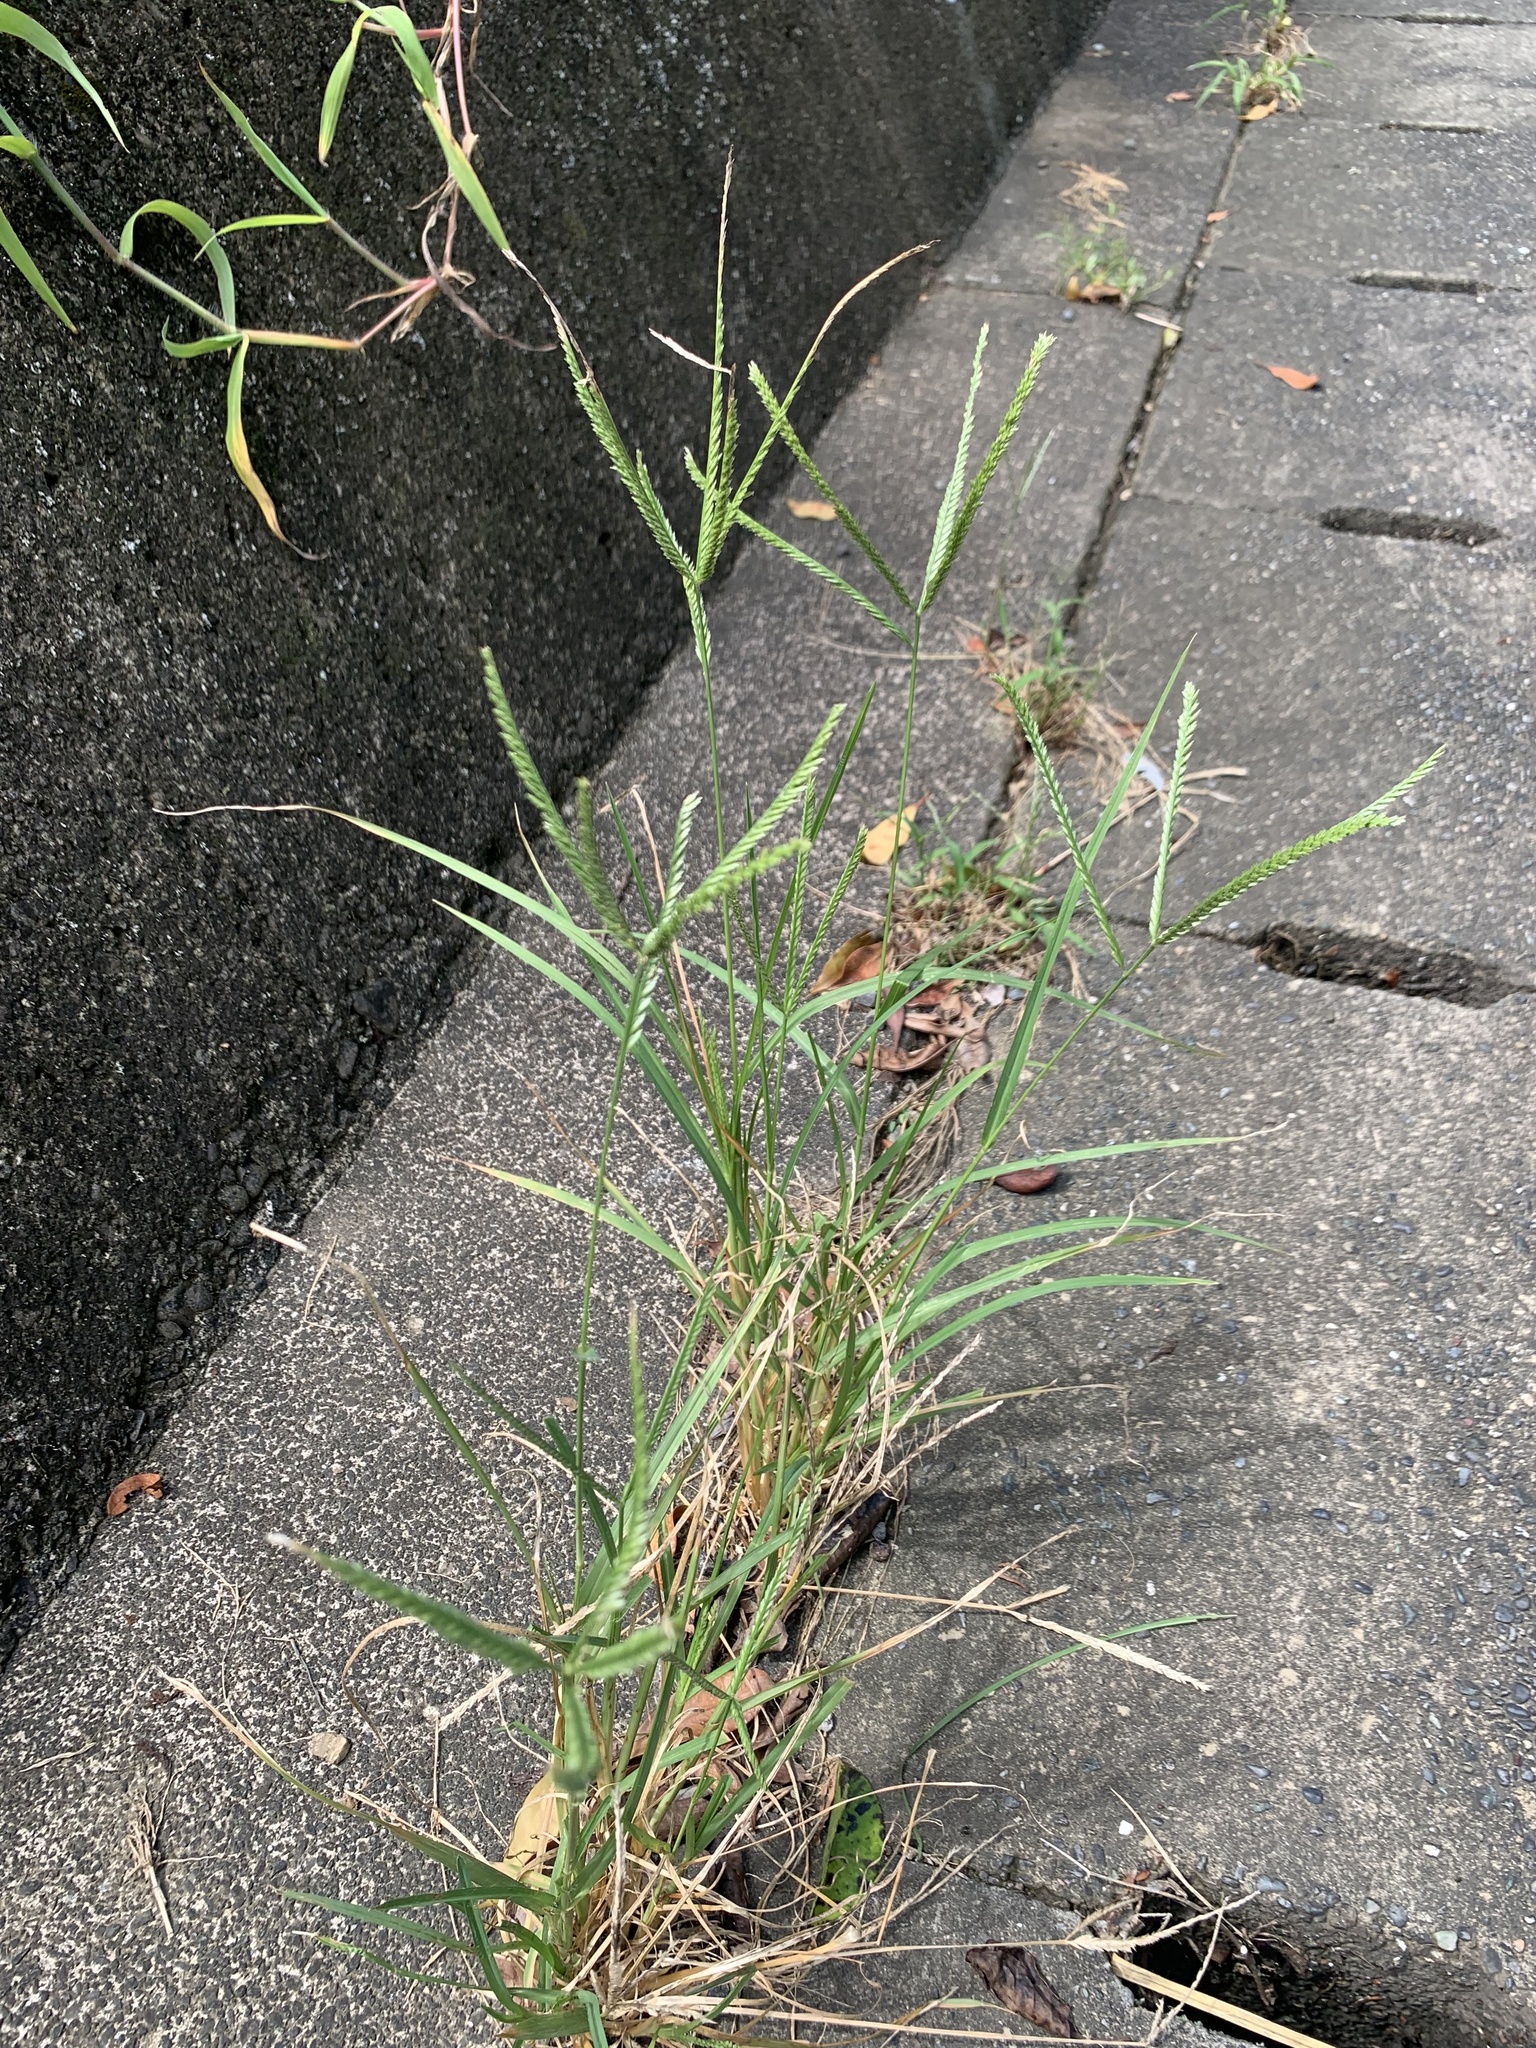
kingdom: Plantae
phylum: Tracheophyta
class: Liliopsida
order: Poales
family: Poaceae
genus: Eleusine
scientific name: Eleusine indica
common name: Yard-grass
